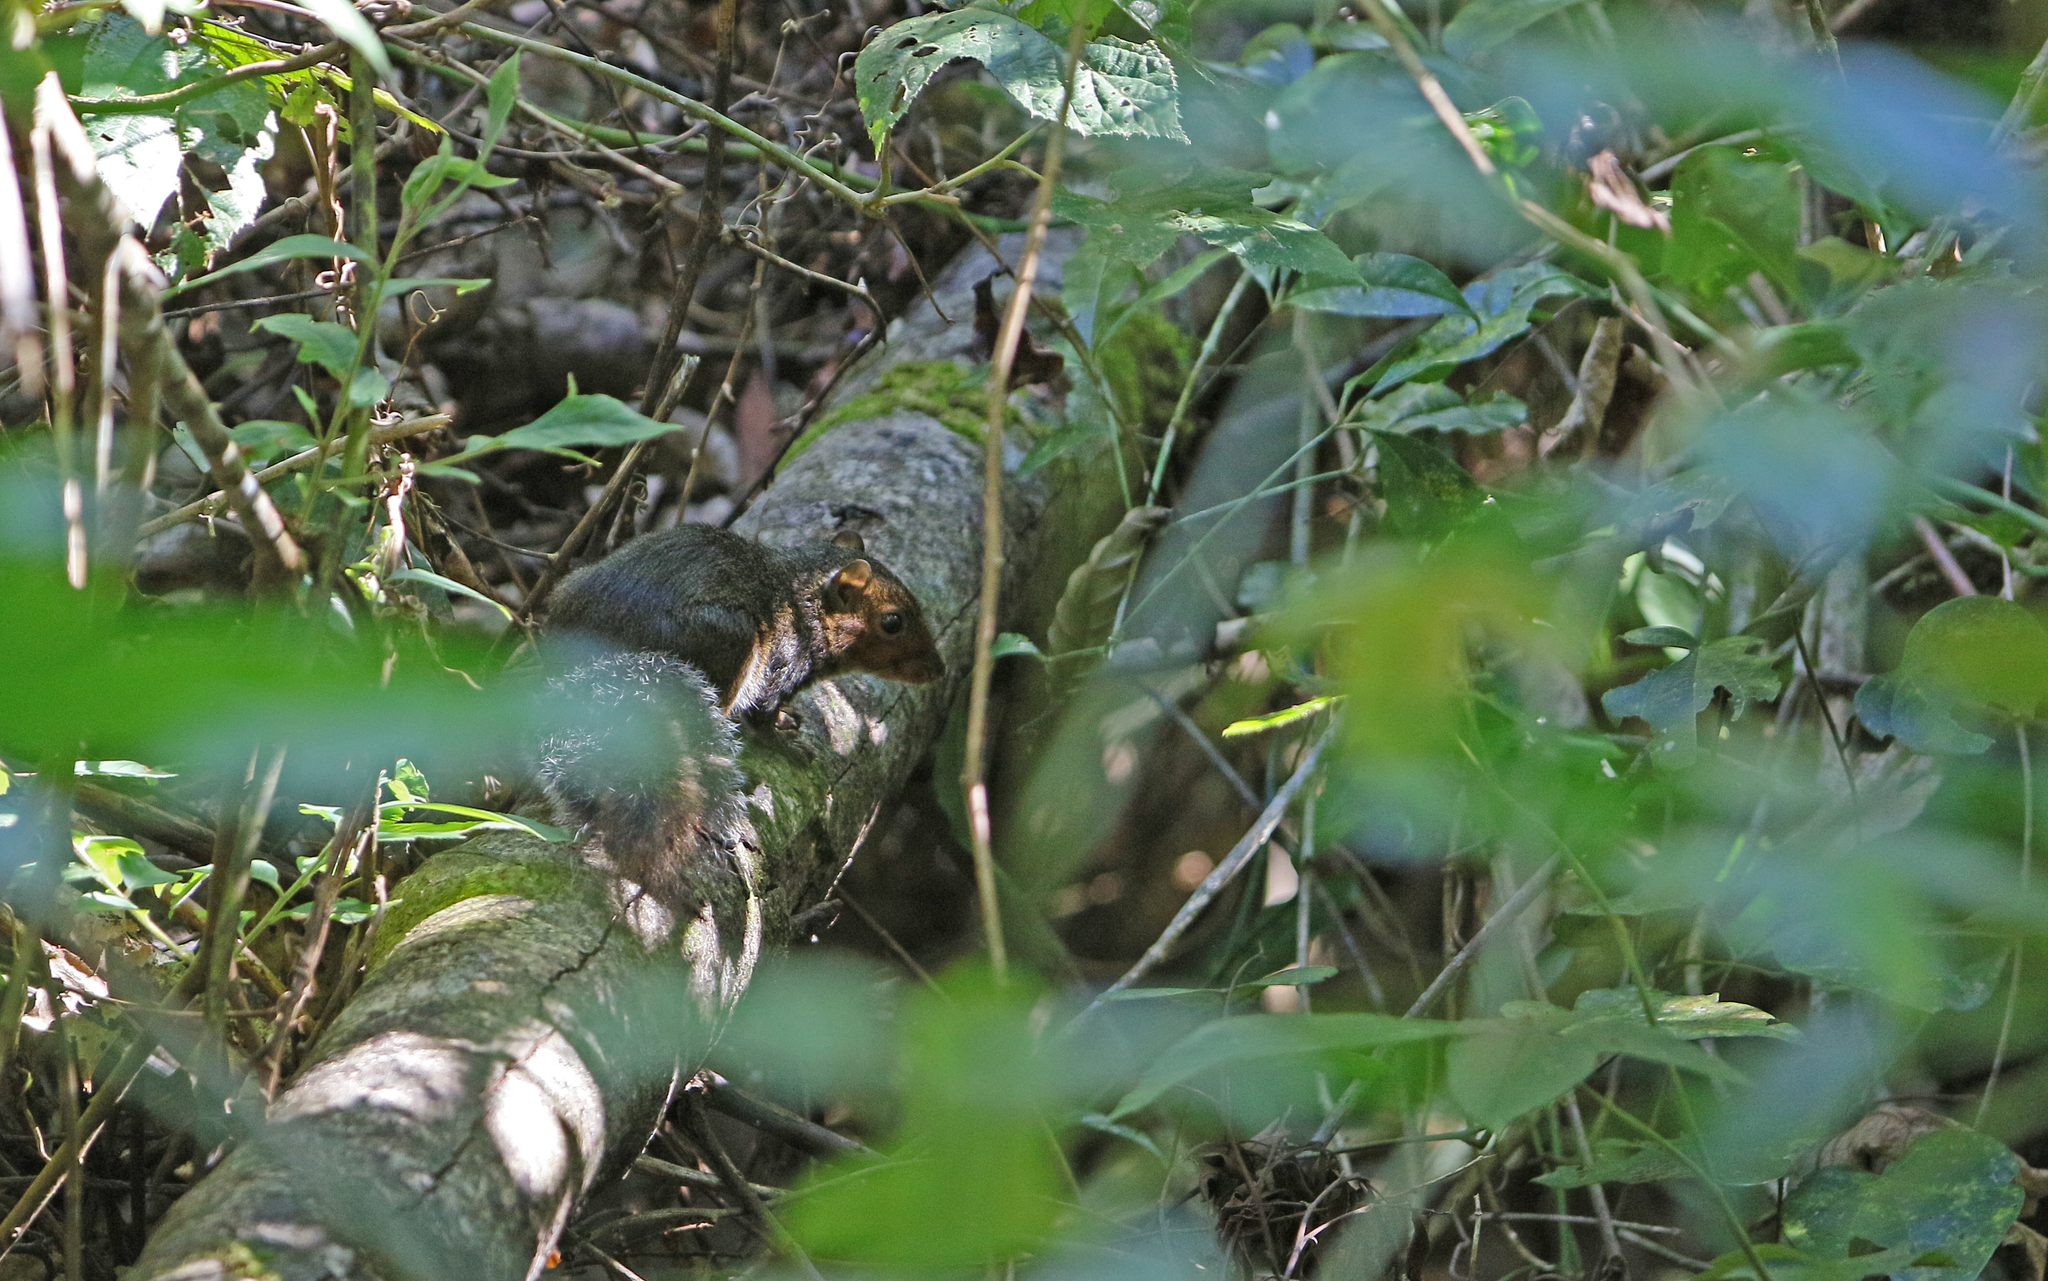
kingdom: Animalia
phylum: Chordata
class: Mammalia
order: Rodentia
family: Sciuridae
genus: Dremomys
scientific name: Dremomys rufigenis
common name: Asian red-cheeked squirrel
